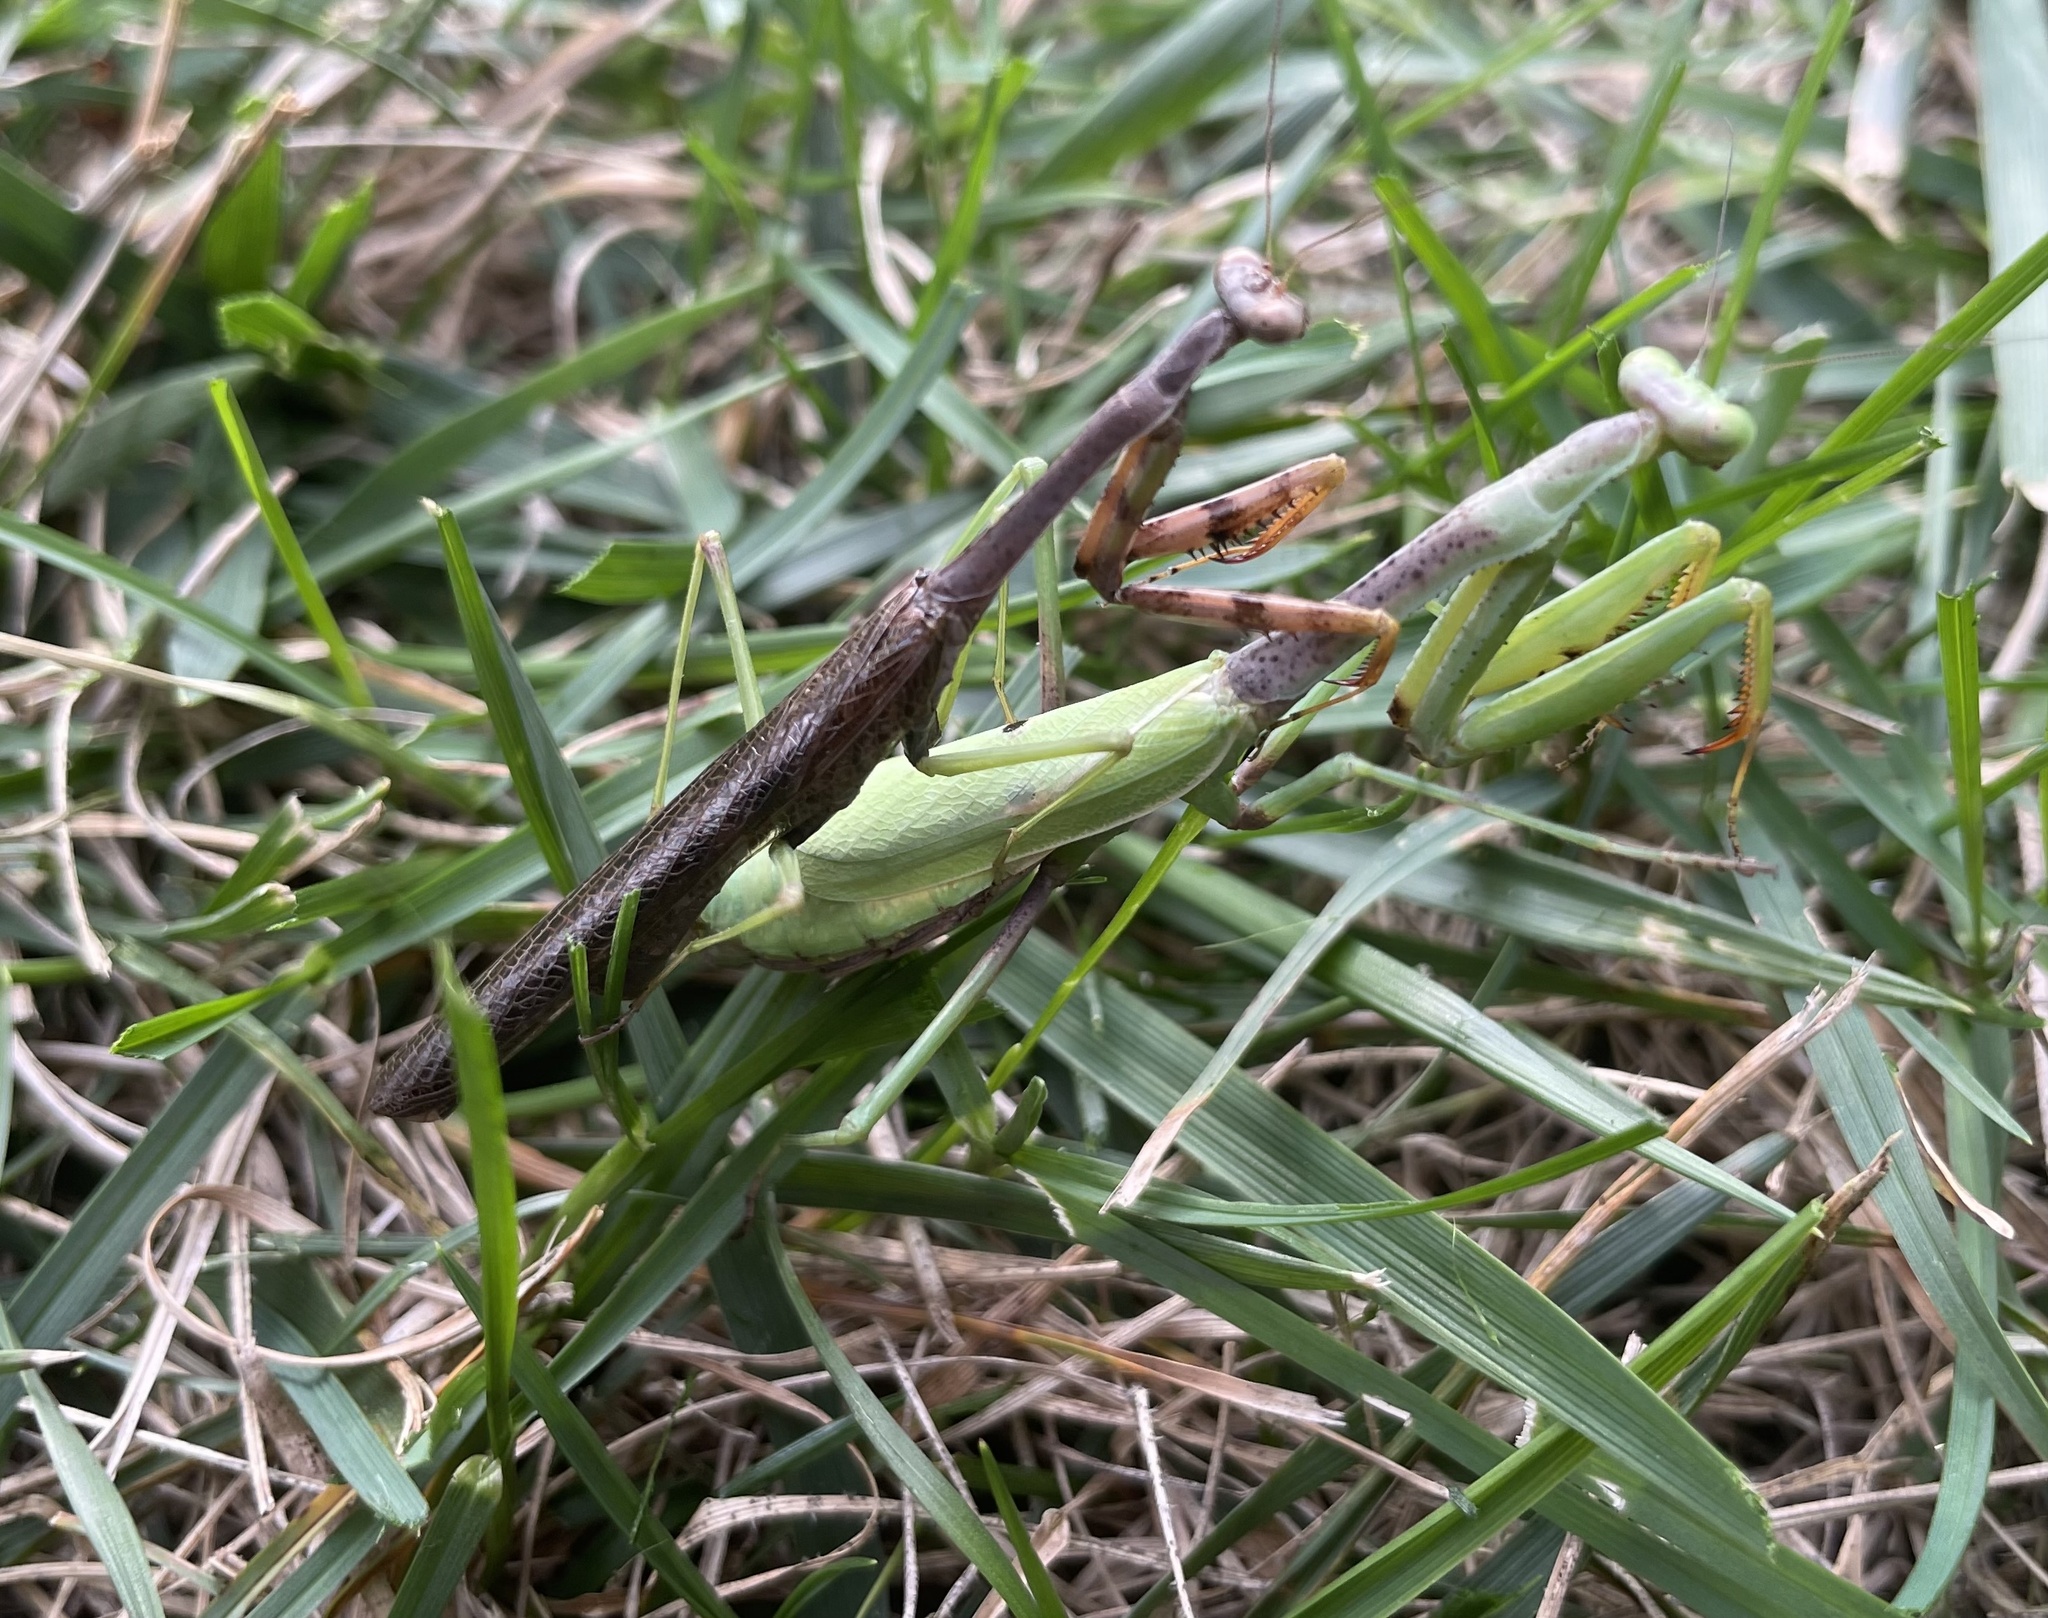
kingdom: Animalia
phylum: Arthropoda
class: Insecta
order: Mantodea
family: Mantidae
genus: Stagmomantis
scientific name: Stagmomantis carolina
